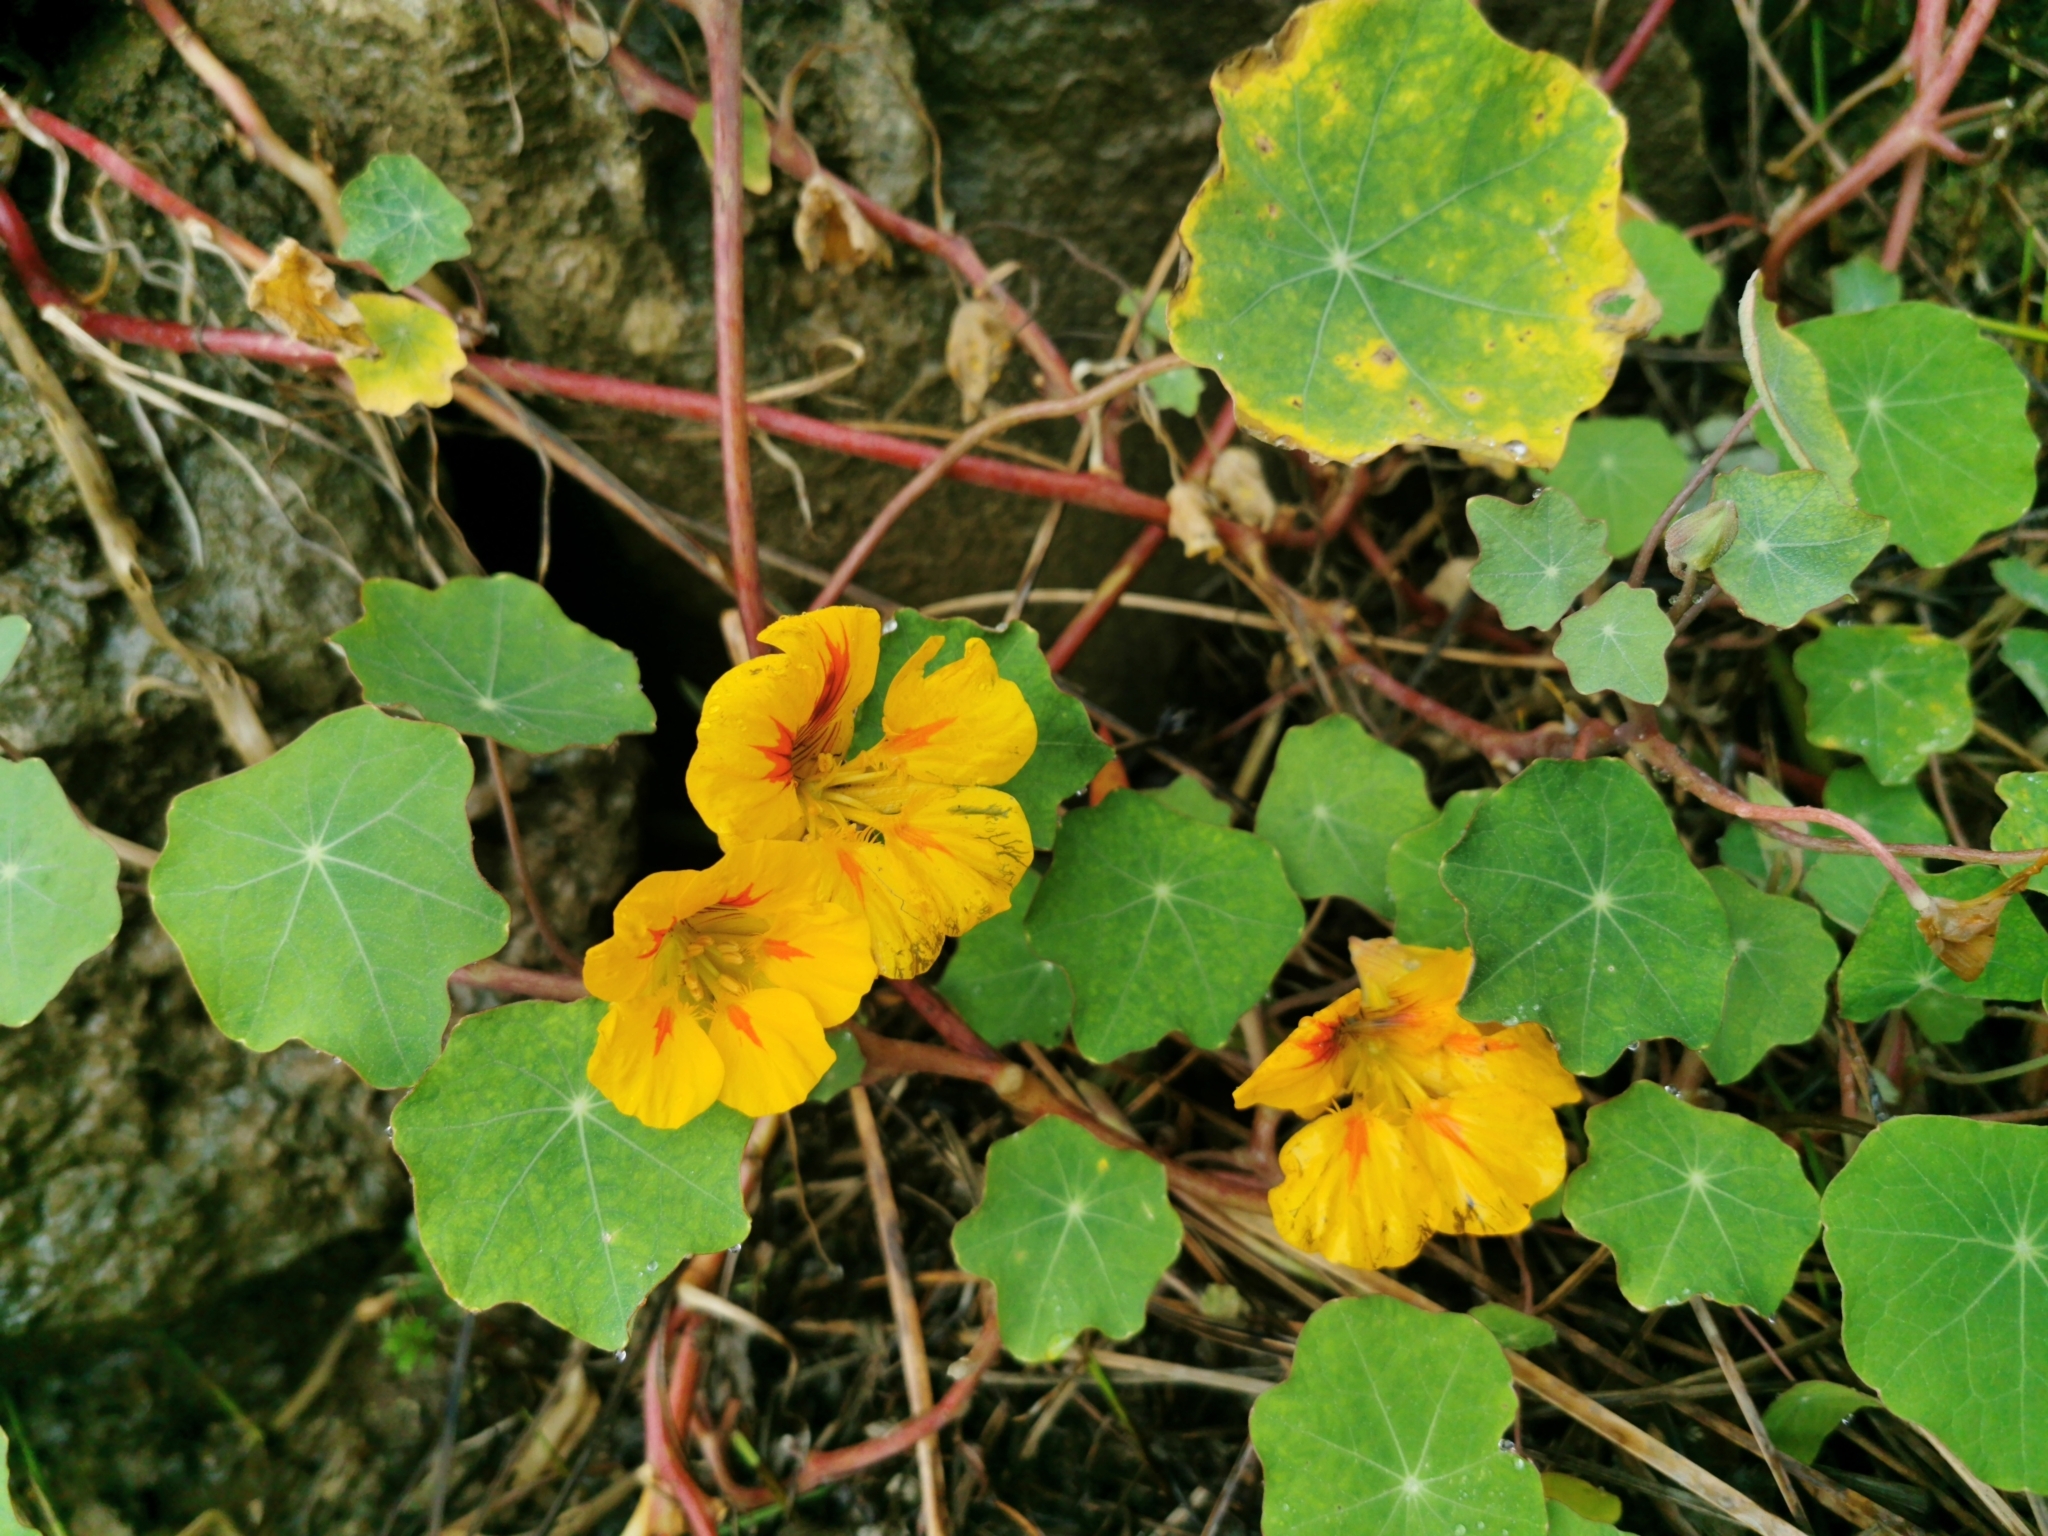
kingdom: Plantae
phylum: Tracheophyta
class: Magnoliopsida
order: Brassicales
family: Tropaeolaceae
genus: Tropaeolum
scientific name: Tropaeolum majus
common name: Nasturtium
